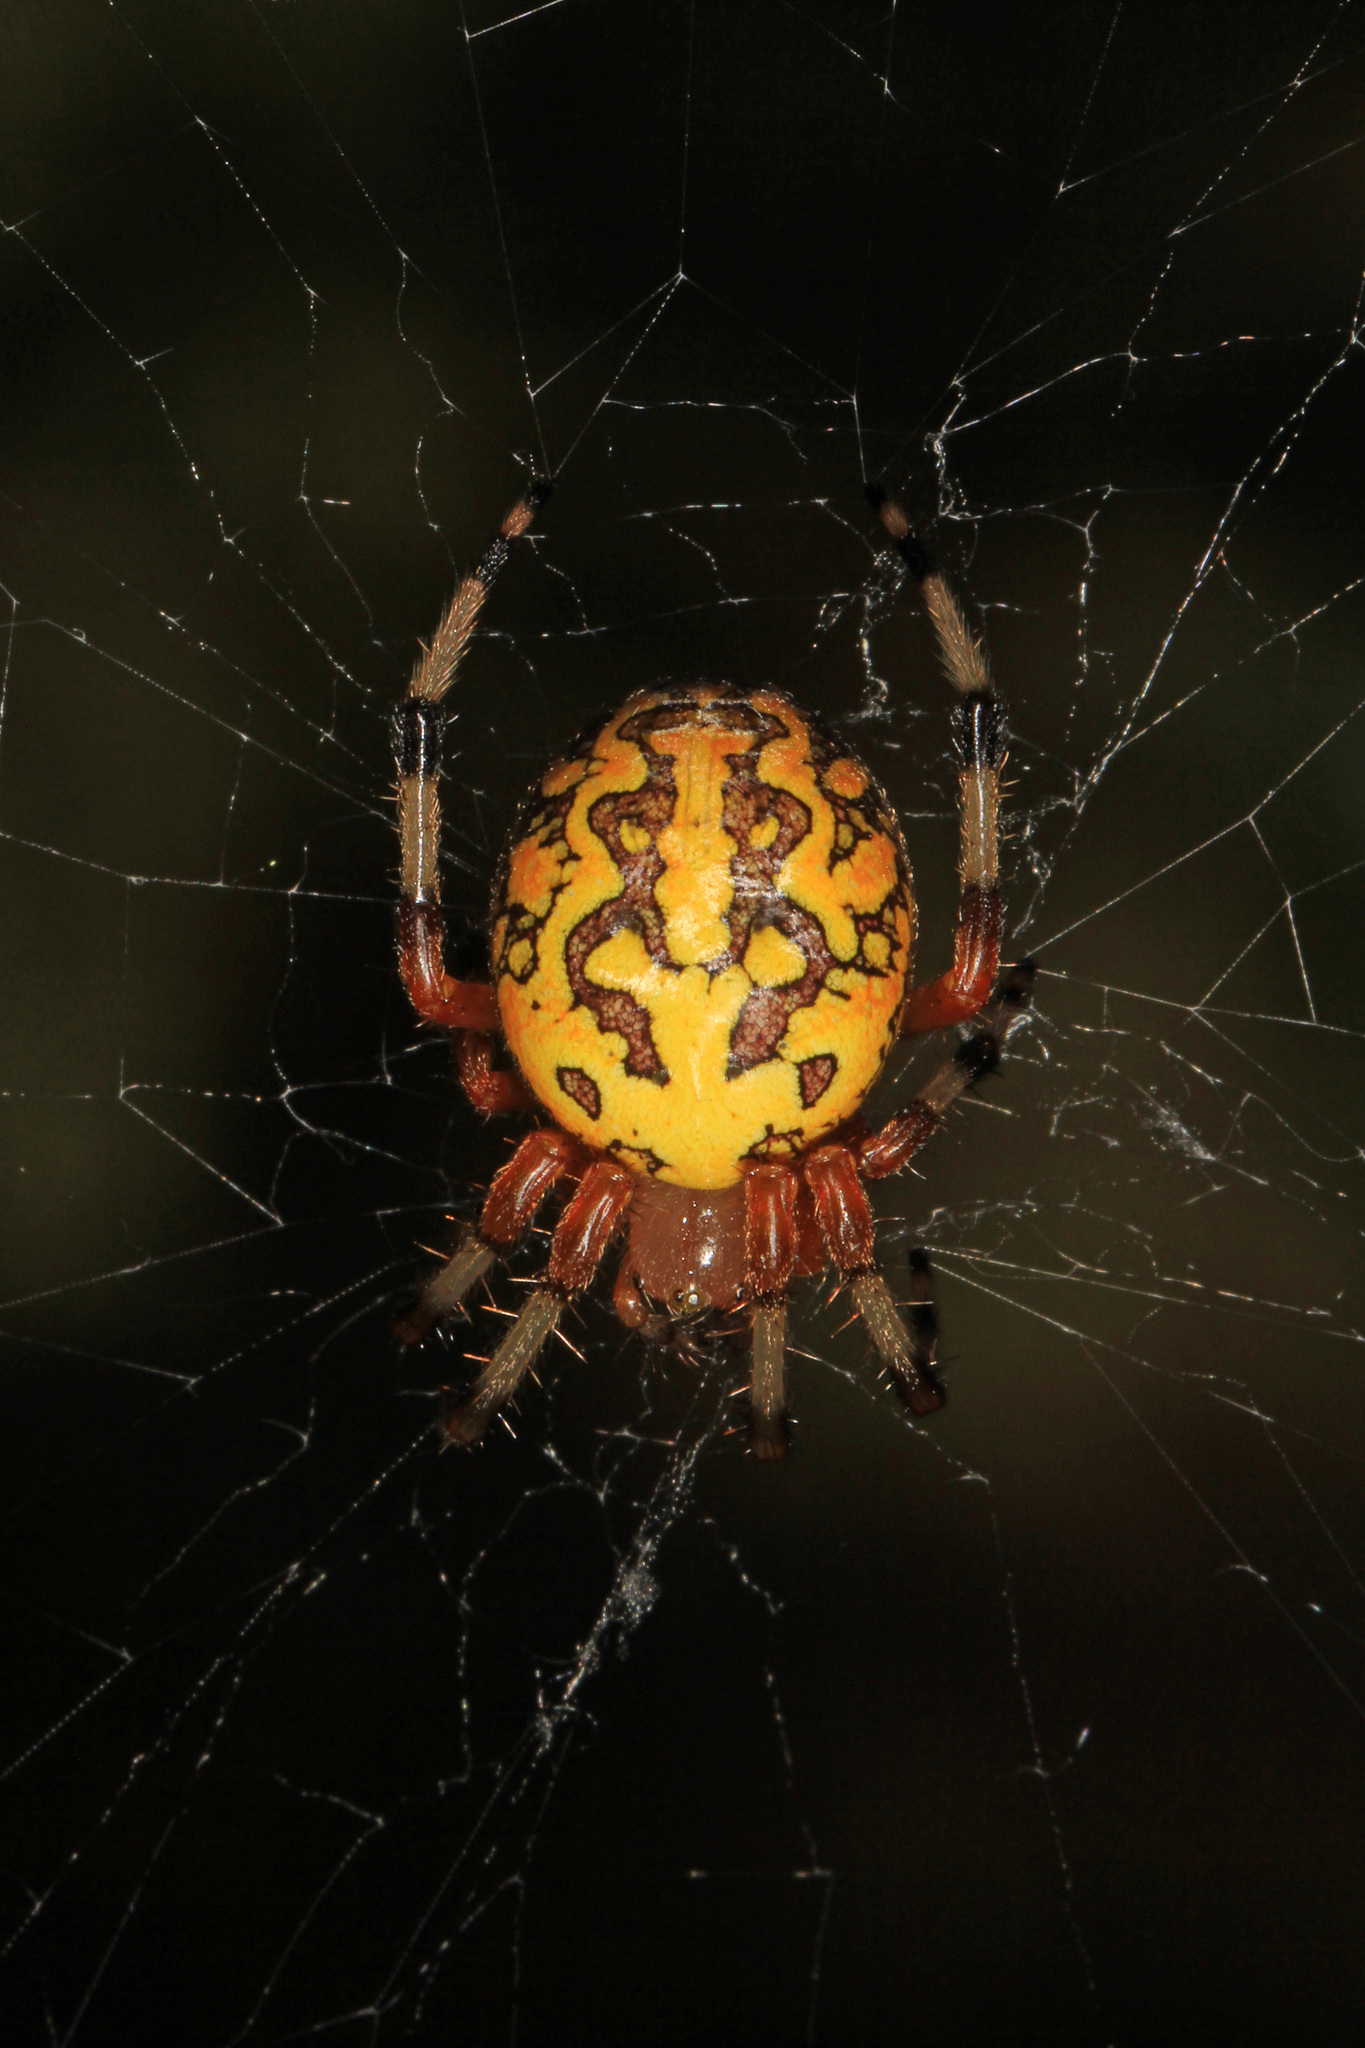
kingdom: Animalia
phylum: Arthropoda
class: Arachnida
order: Araneae
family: Araneidae
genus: Araneus
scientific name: Araneus marmoreus
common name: Marbled orbweaver
